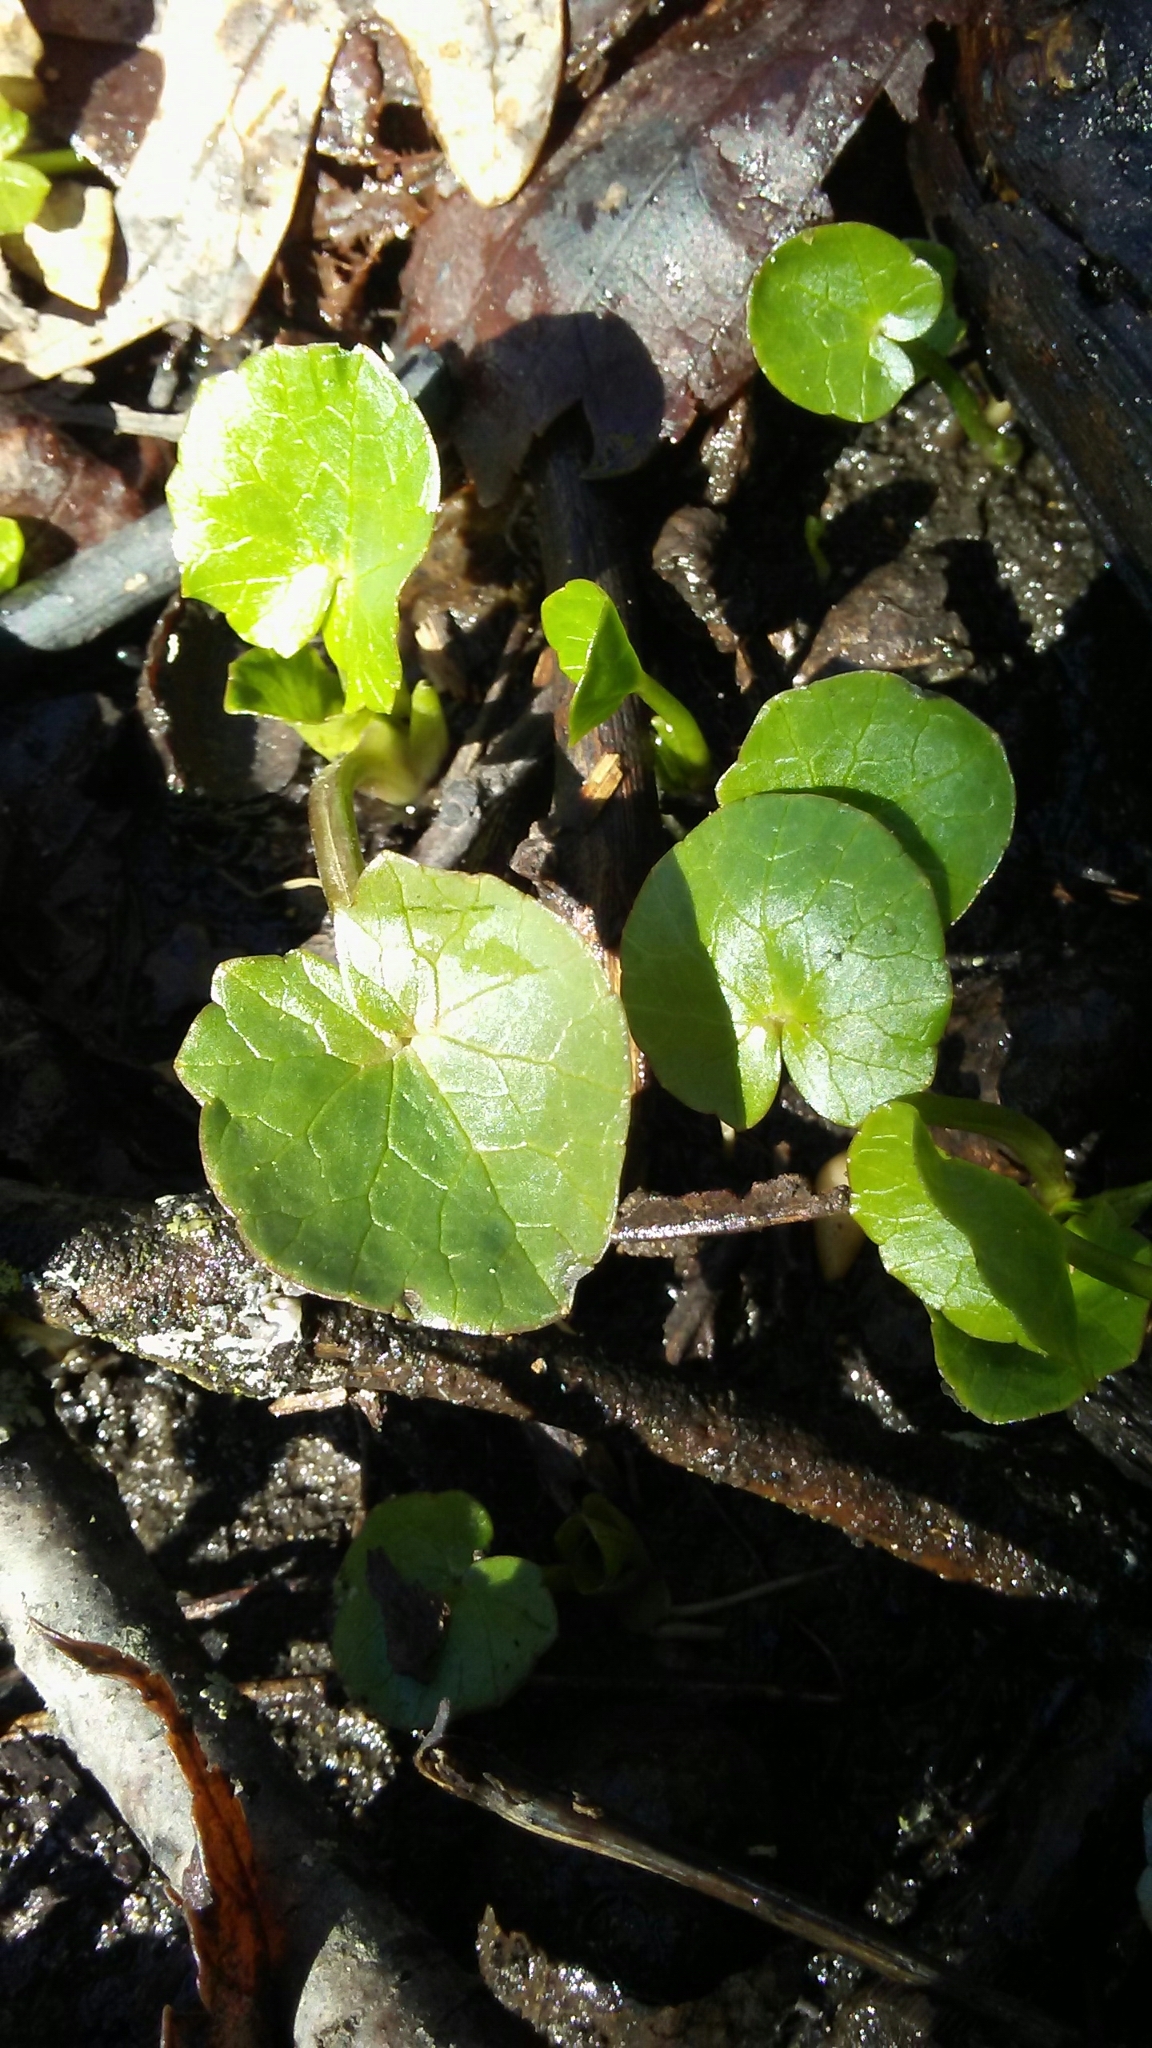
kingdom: Plantae
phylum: Tracheophyta
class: Magnoliopsida
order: Ranunculales
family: Ranunculaceae
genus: Ficaria
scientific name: Ficaria verna
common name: Lesser celandine
